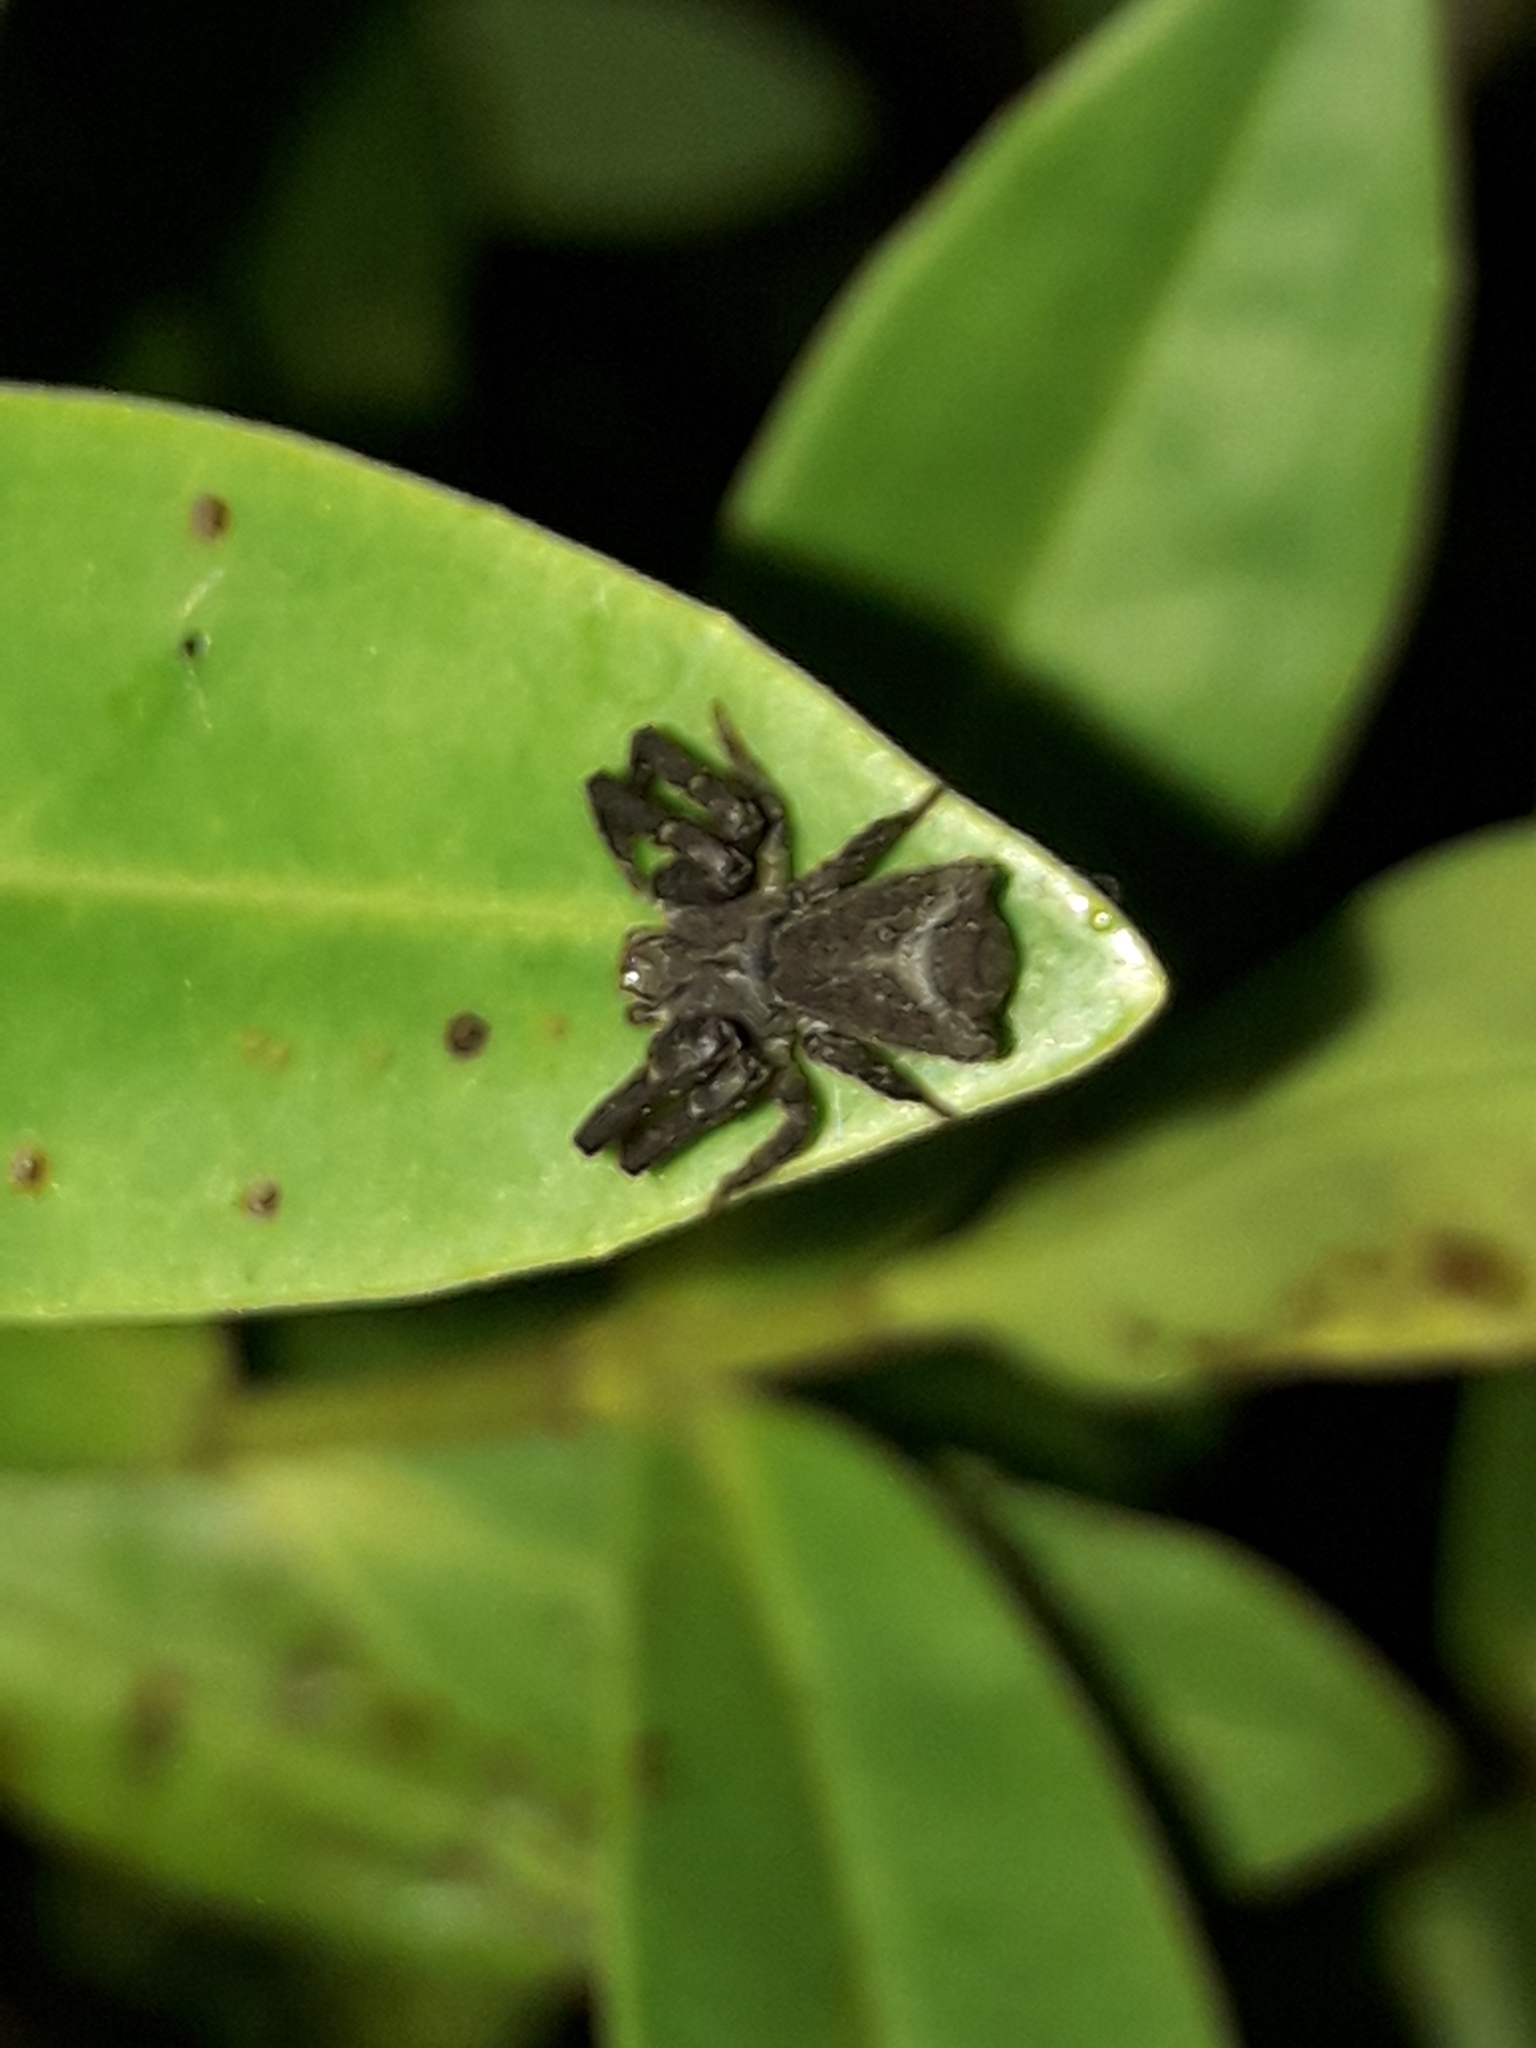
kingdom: Animalia
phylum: Arthropoda
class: Arachnida
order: Araneae
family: Thomisidae
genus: Sidymella
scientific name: Sidymella angularis
